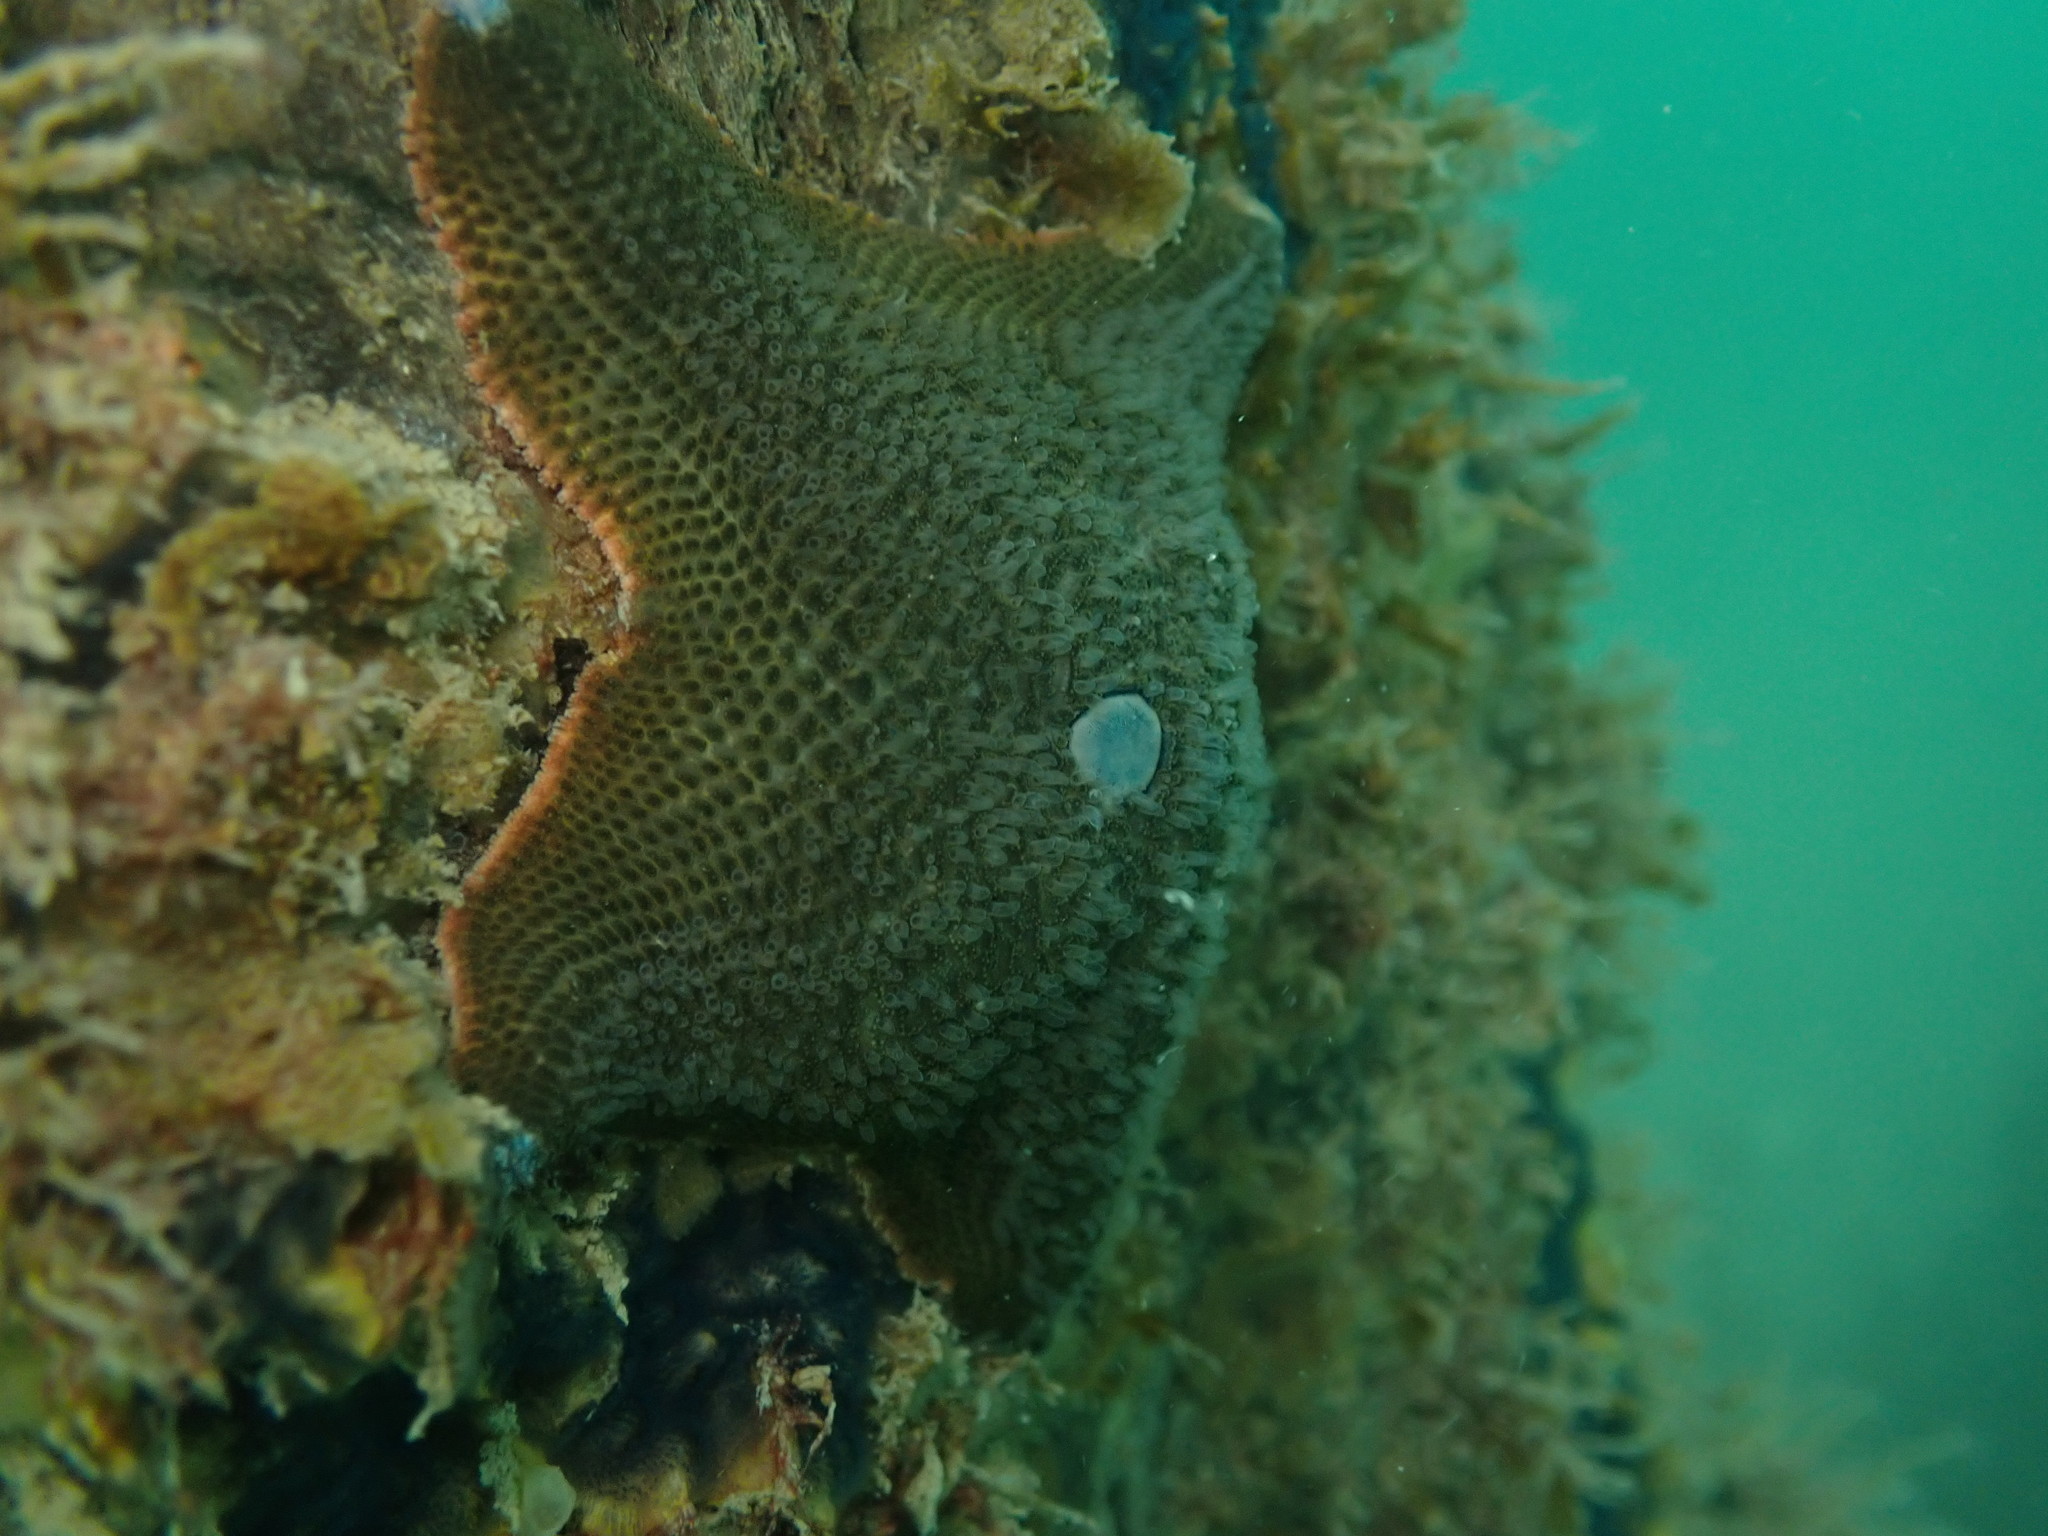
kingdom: Animalia
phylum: Echinodermata
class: Asteroidea
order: Valvatida
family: Asterinidae
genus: Patiriella
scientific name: Patiriella regularis
